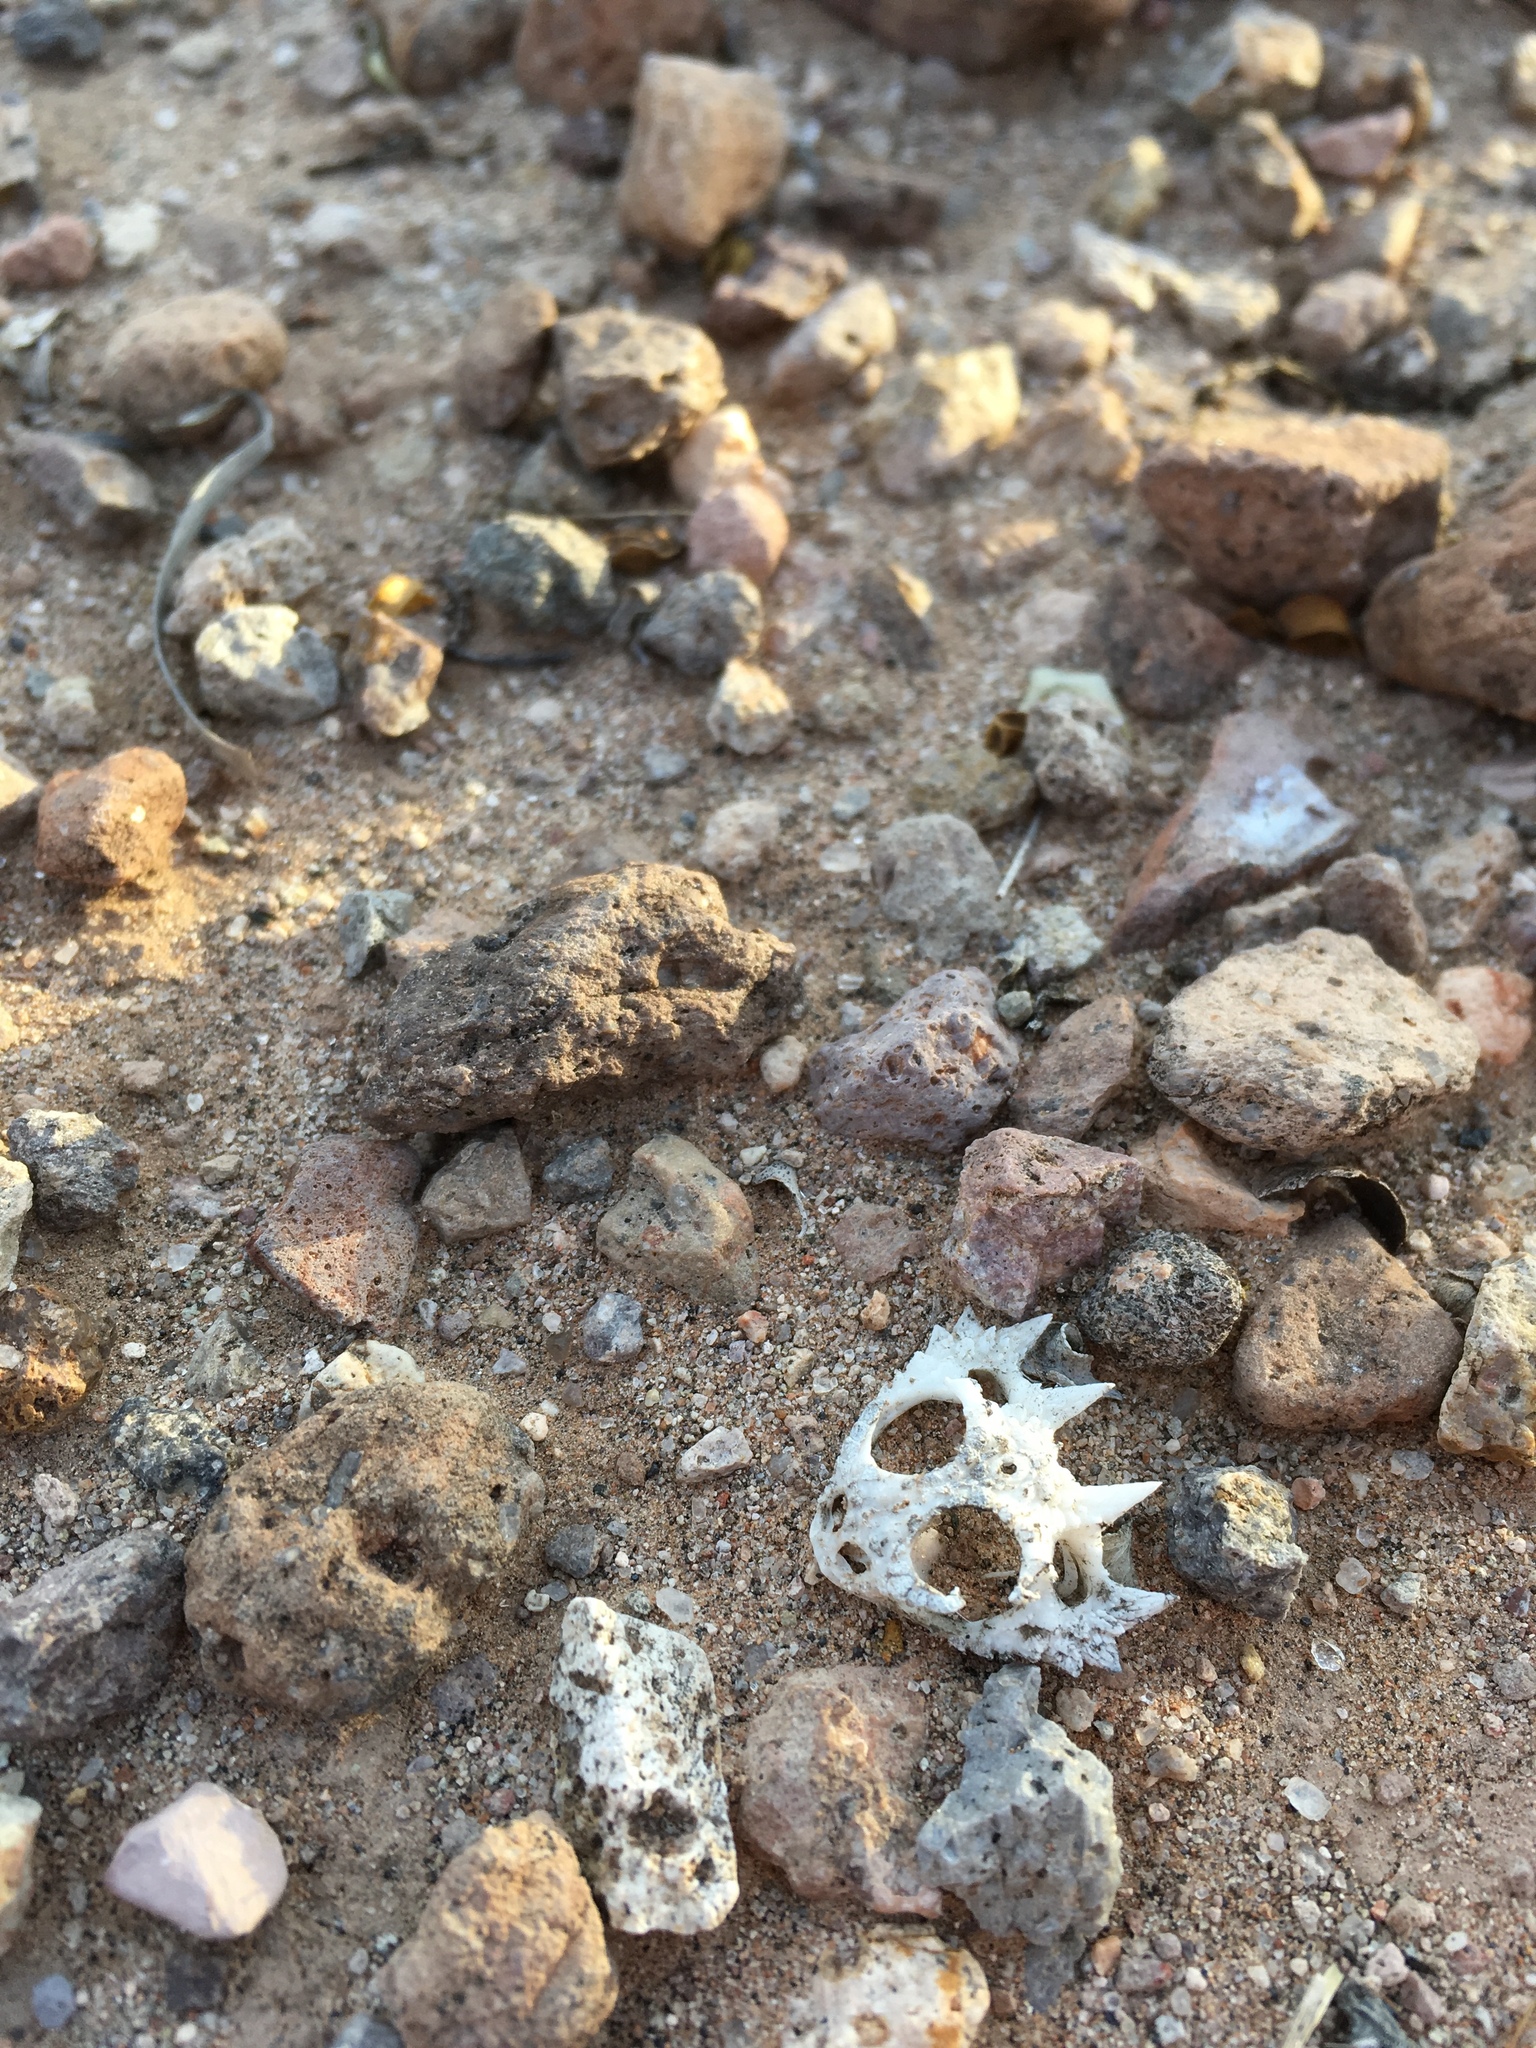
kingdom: Animalia
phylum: Chordata
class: Squamata
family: Phrynosomatidae
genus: Phrynosoma
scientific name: Phrynosoma modestum
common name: Roundtail horned lizard
